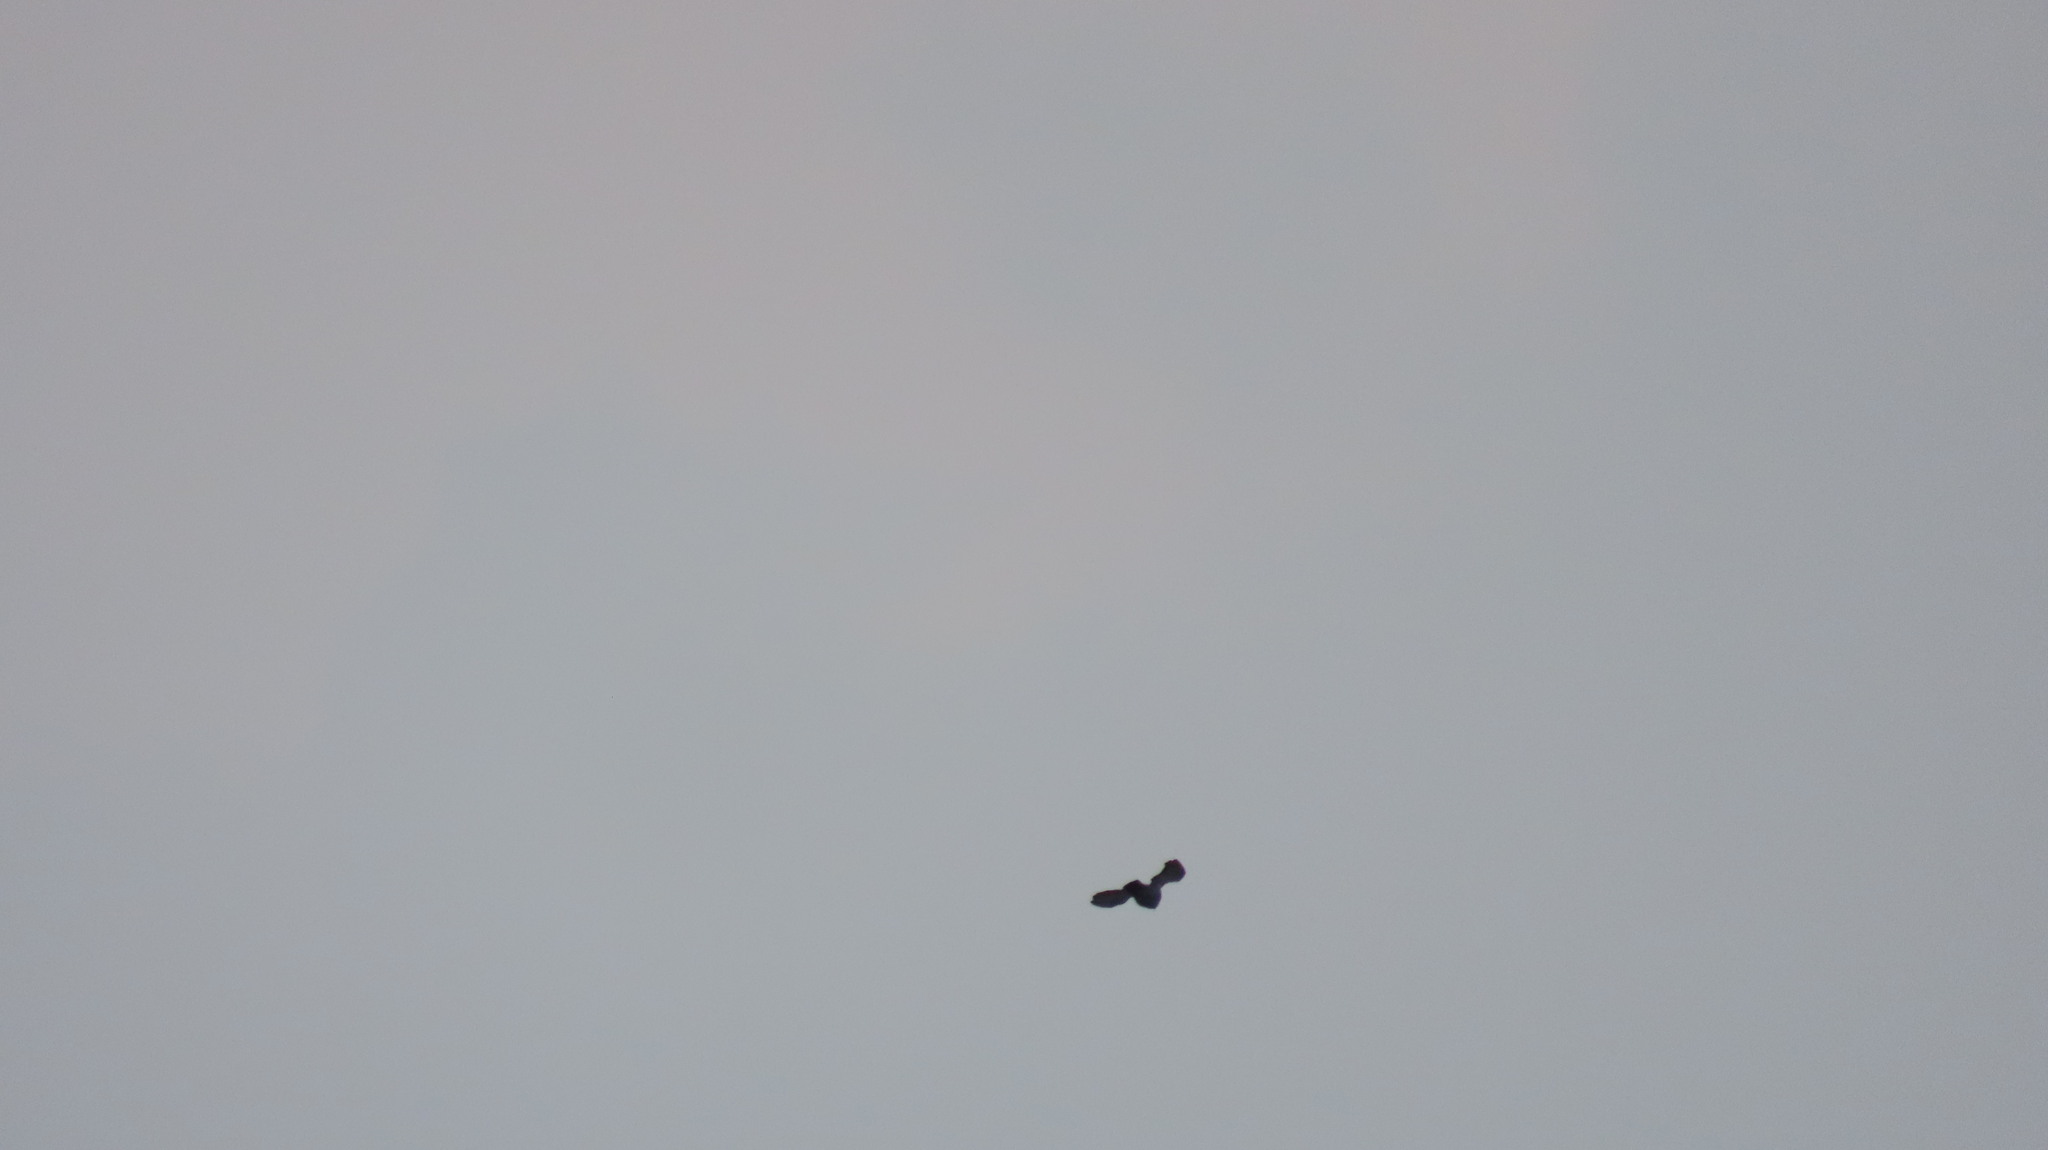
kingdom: Animalia
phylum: Chordata
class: Aves
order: Columbiformes
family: Columbidae
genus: Columba
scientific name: Columba livia
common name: Rock pigeon
